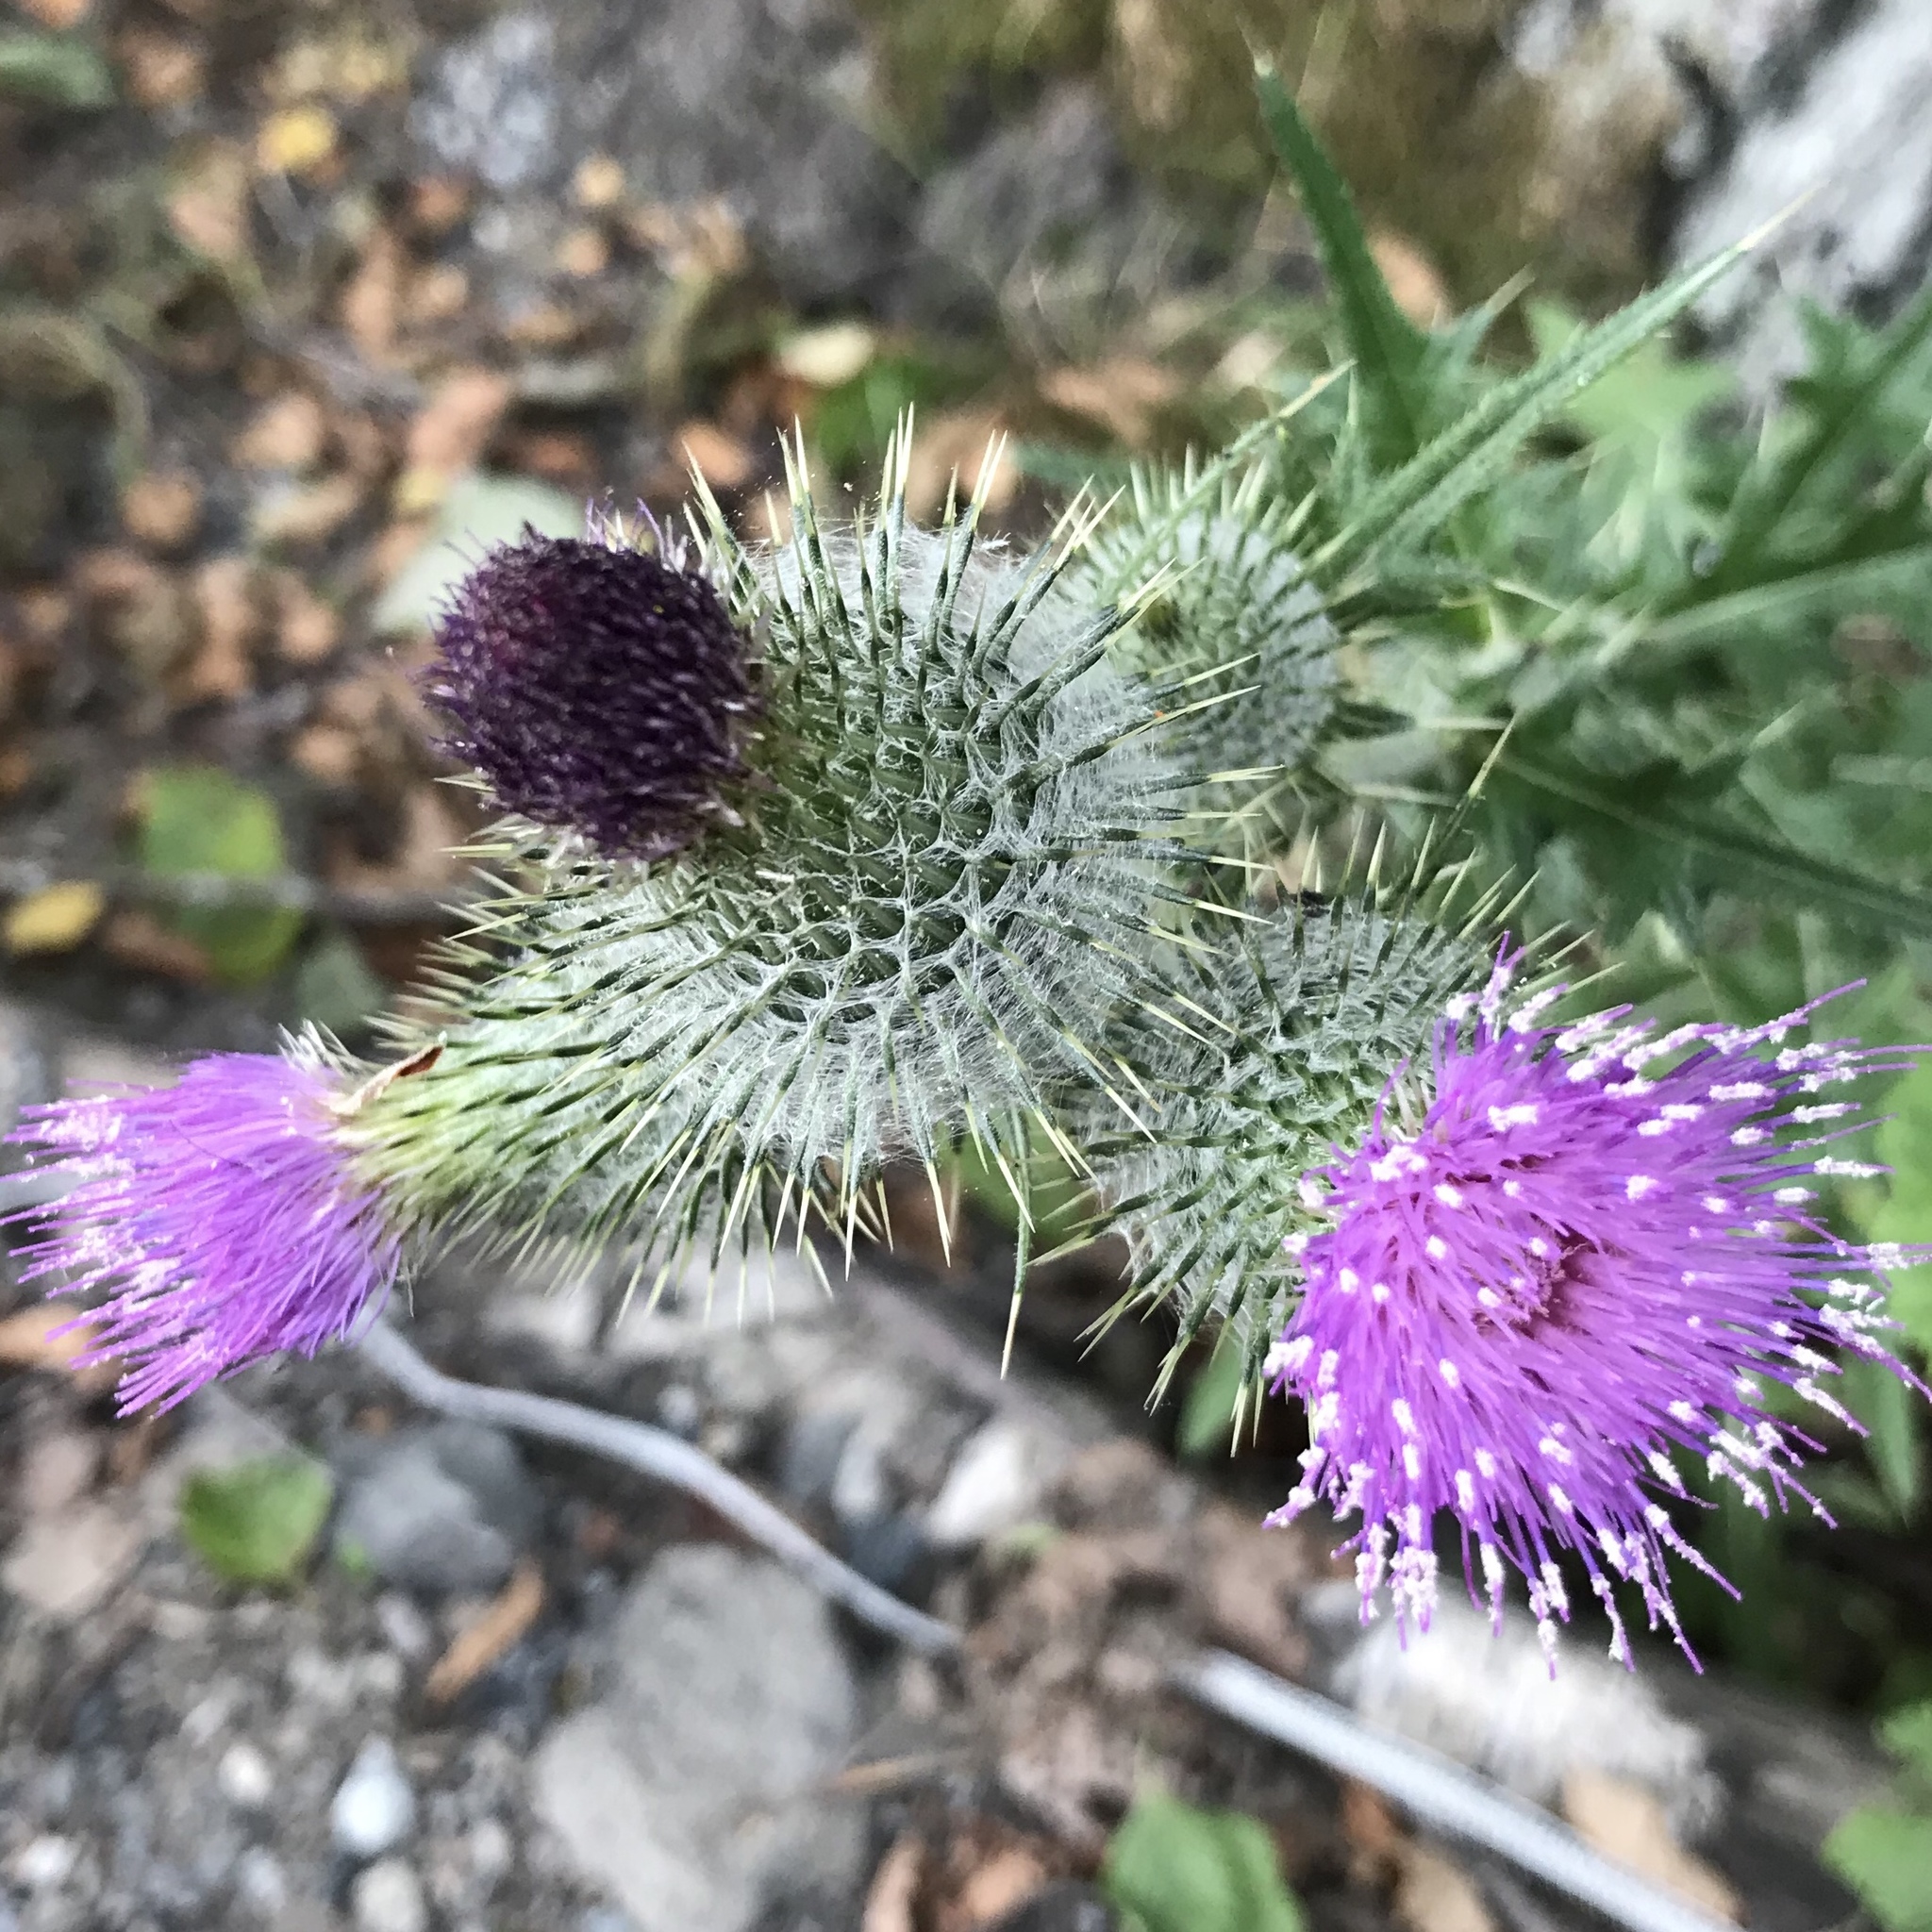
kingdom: Plantae
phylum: Tracheophyta
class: Magnoliopsida
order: Asterales
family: Asteraceae
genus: Cirsium
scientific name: Cirsium vulgare
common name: Bull thistle
